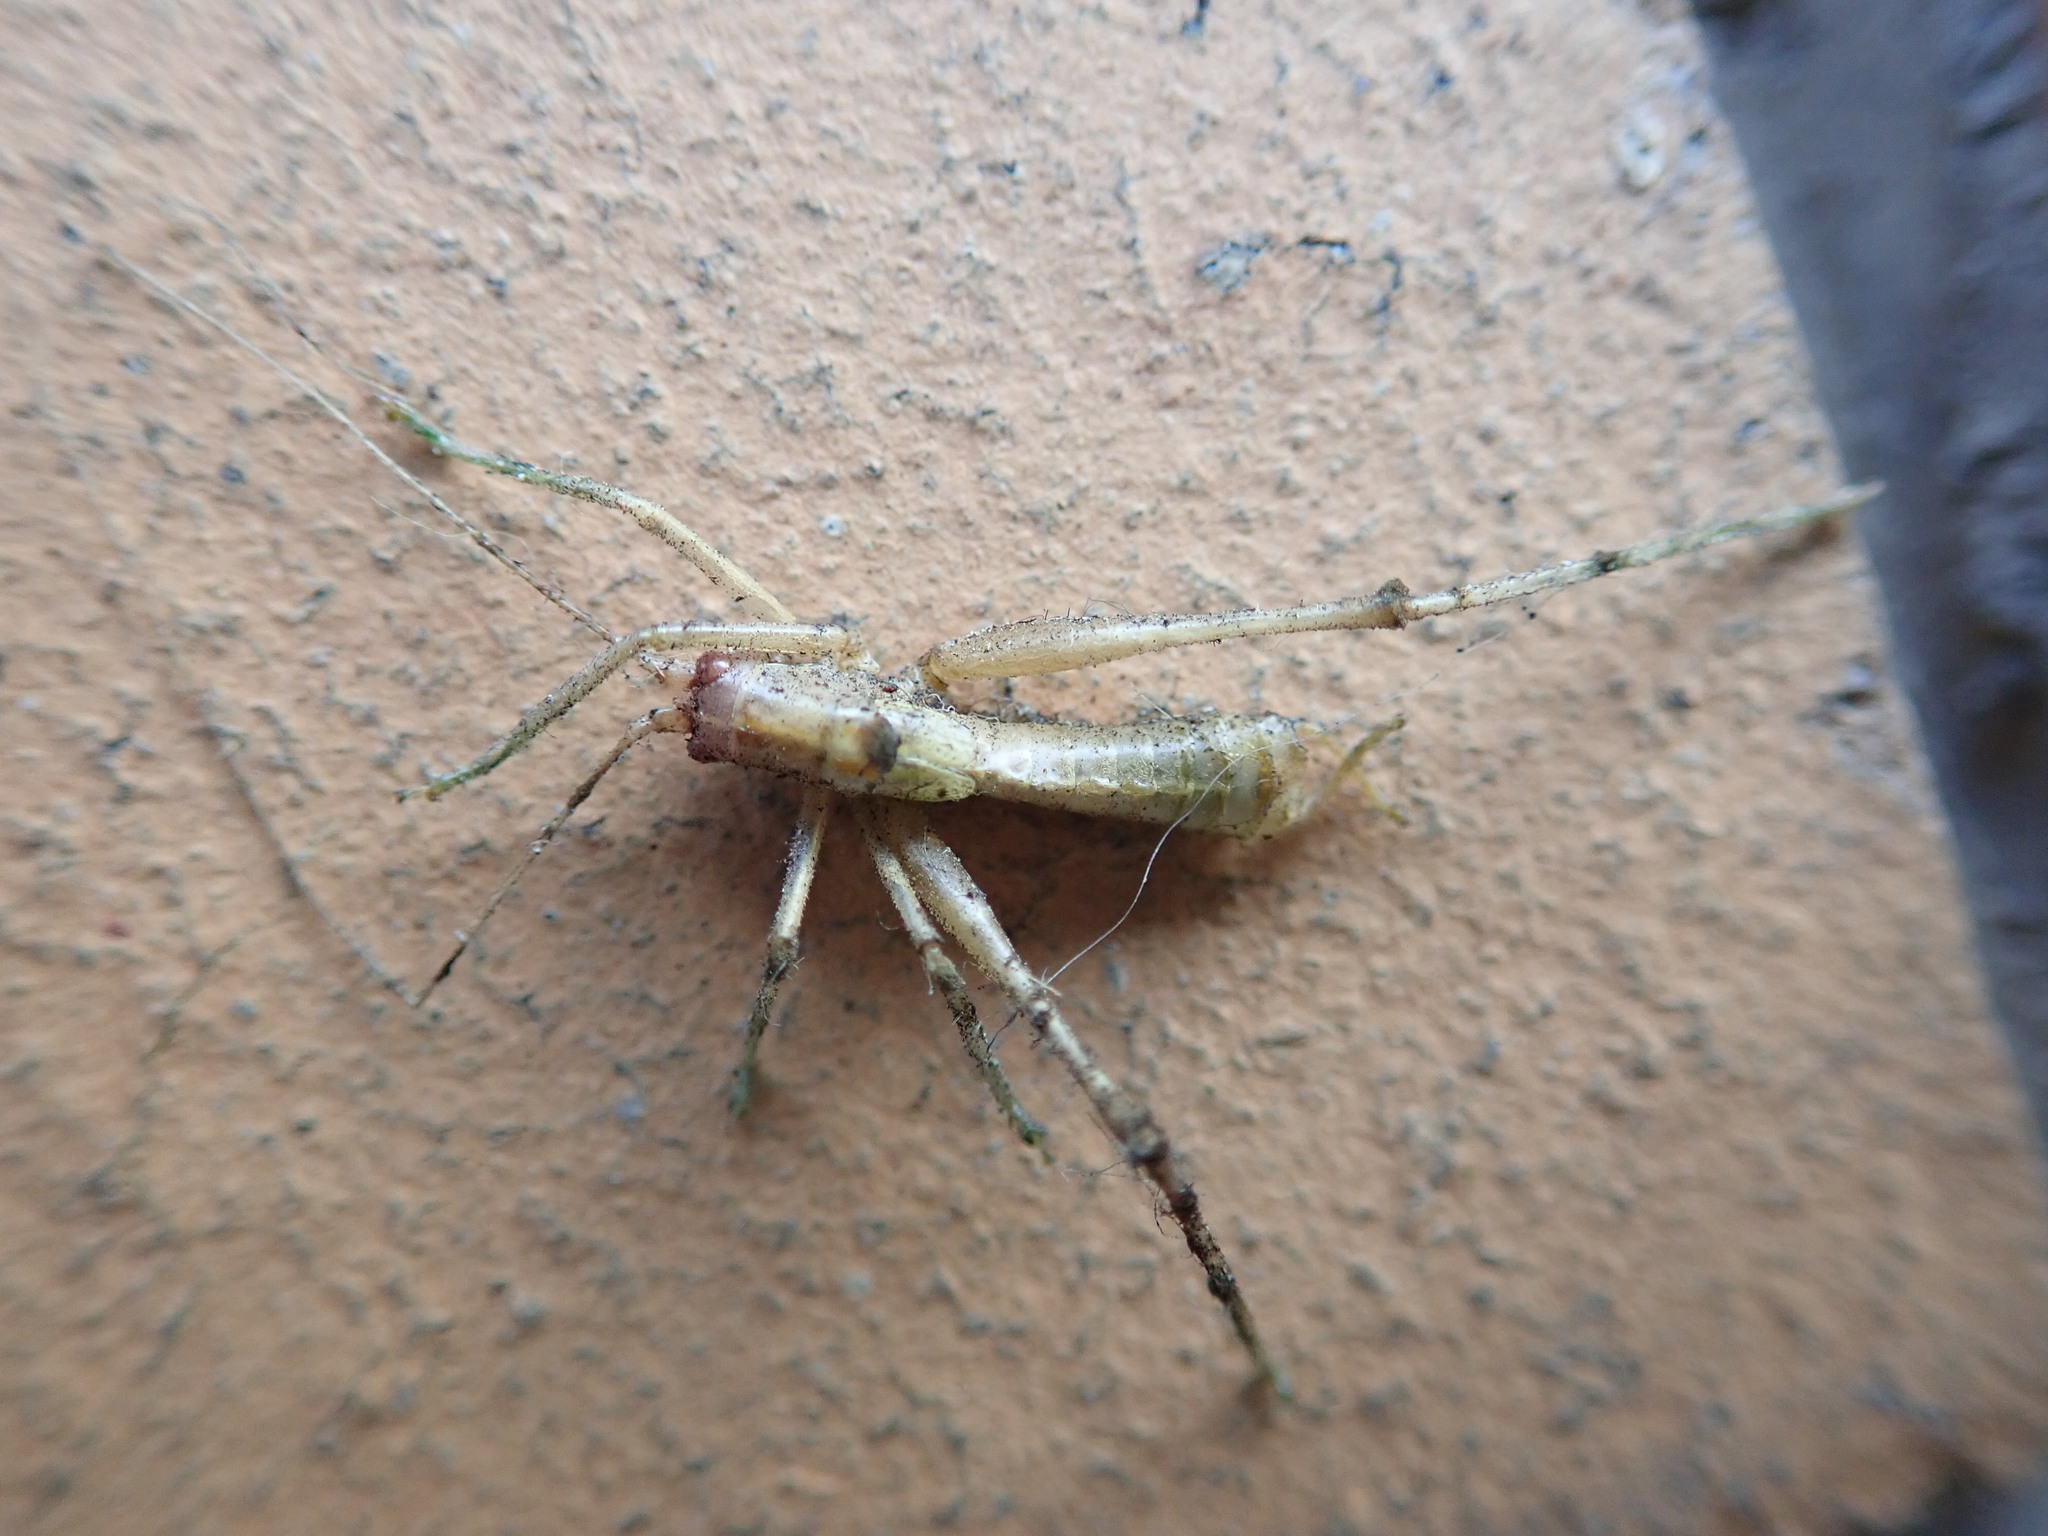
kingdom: Animalia
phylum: Arthropoda
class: Insecta
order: Orthoptera
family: Tettigoniidae
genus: Meconema
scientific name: Meconema meridionale
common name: Southern oak bush-cricket
